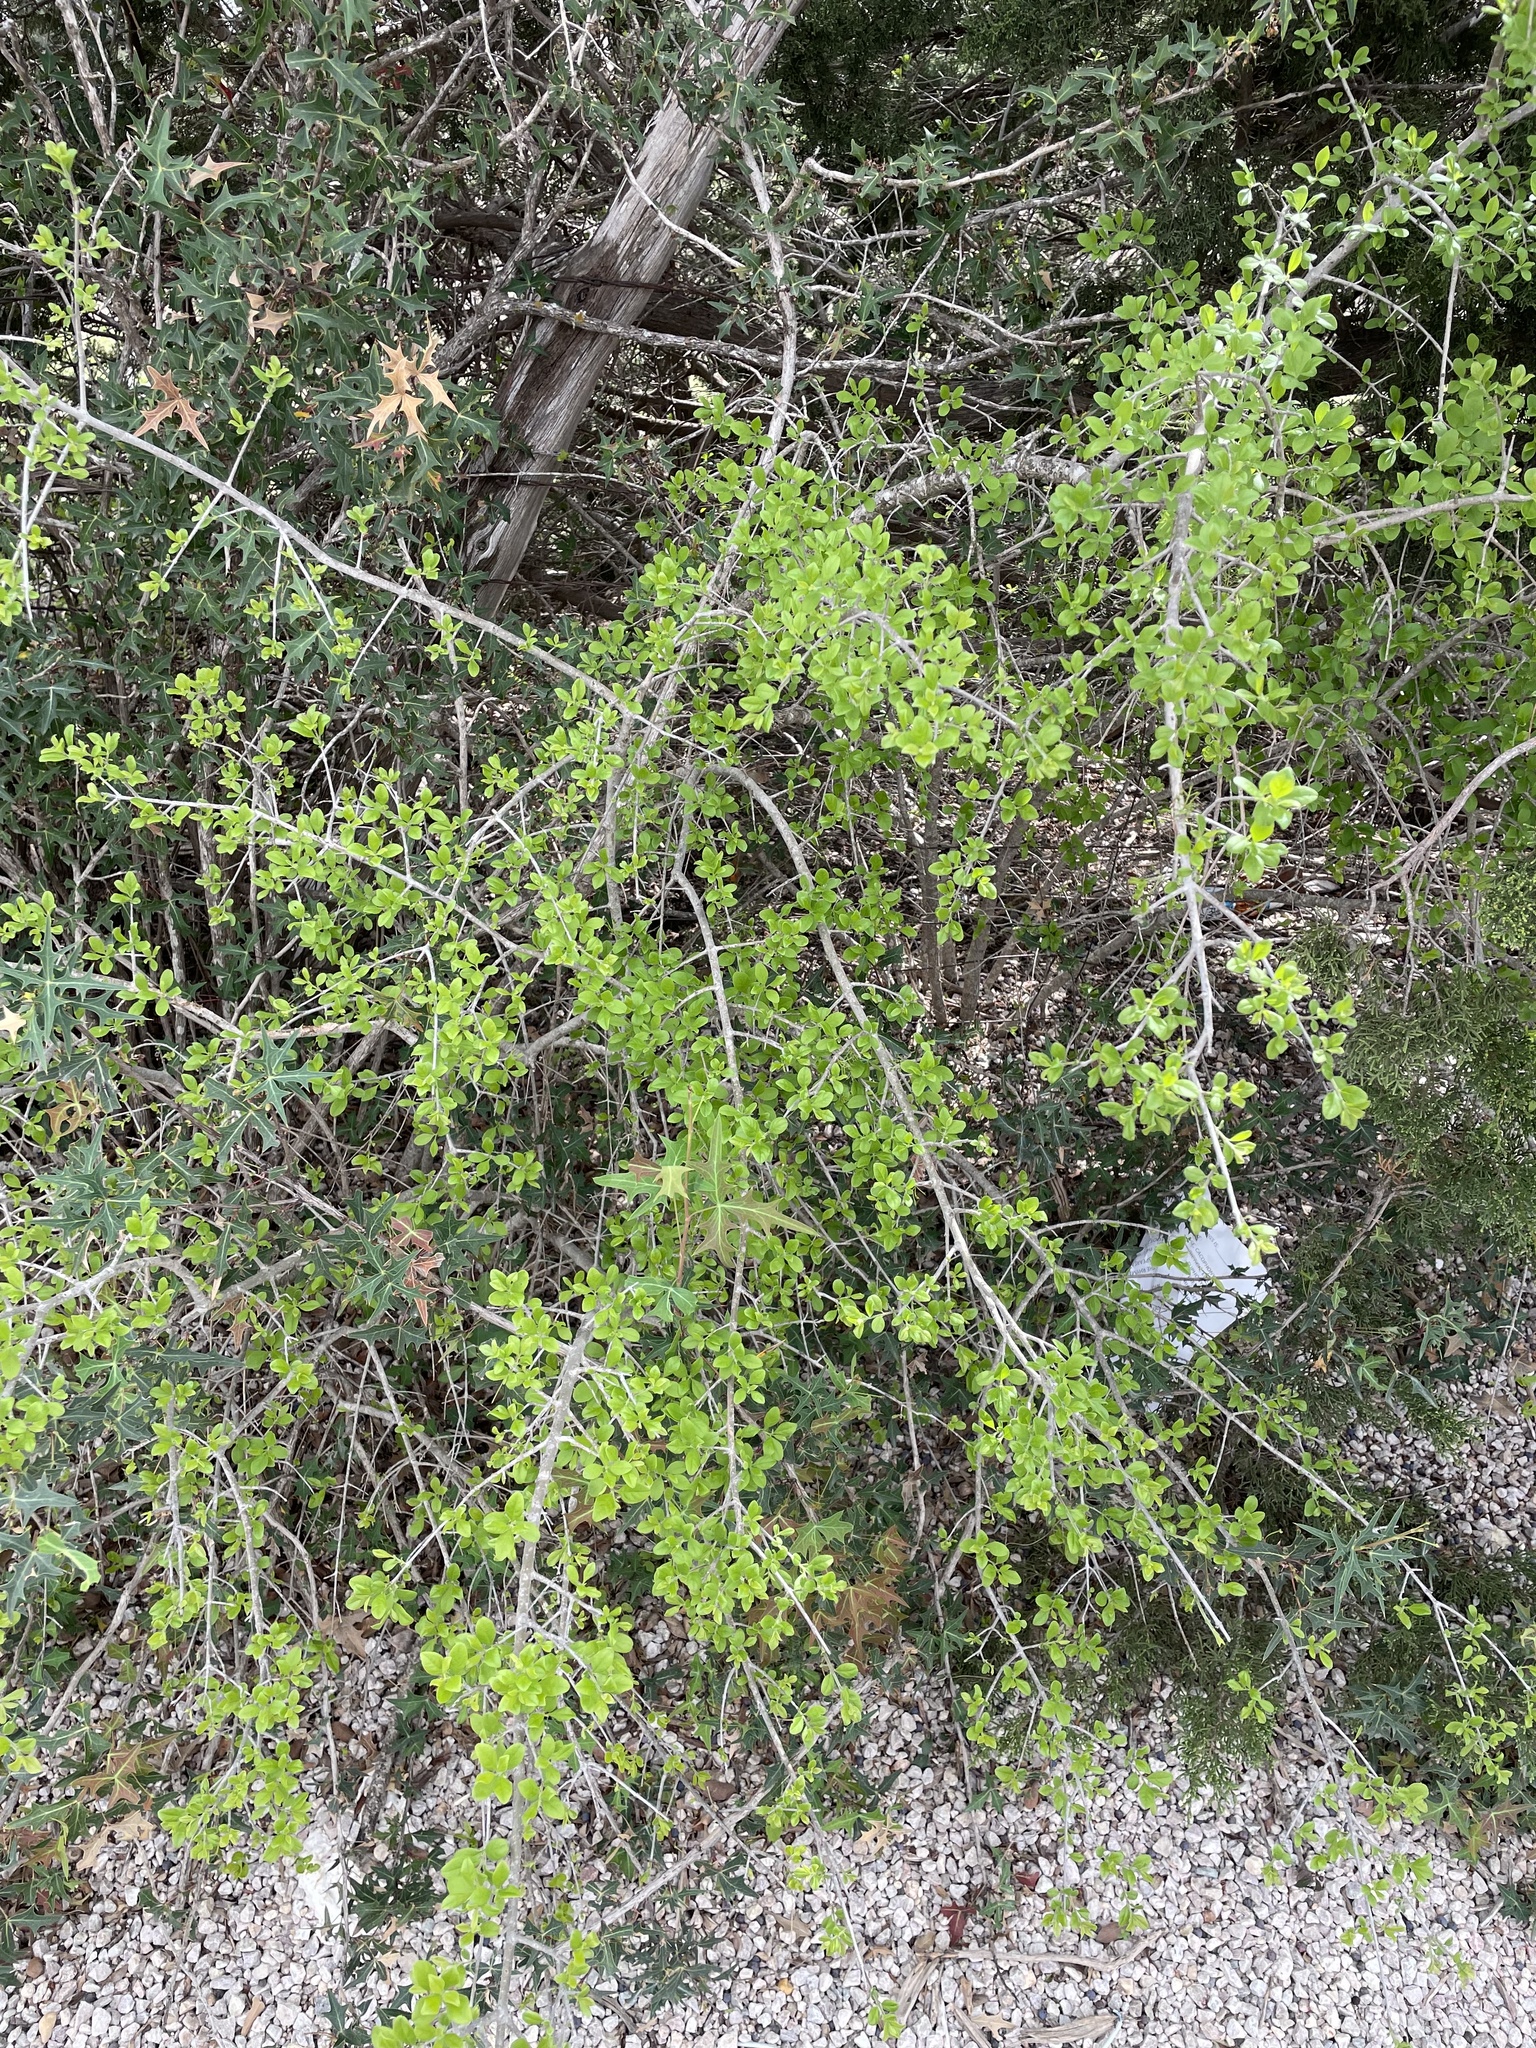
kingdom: Plantae
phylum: Tracheophyta
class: Magnoliopsida
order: Lamiales
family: Oleaceae
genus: Forestiera
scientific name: Forestiera pubescens
